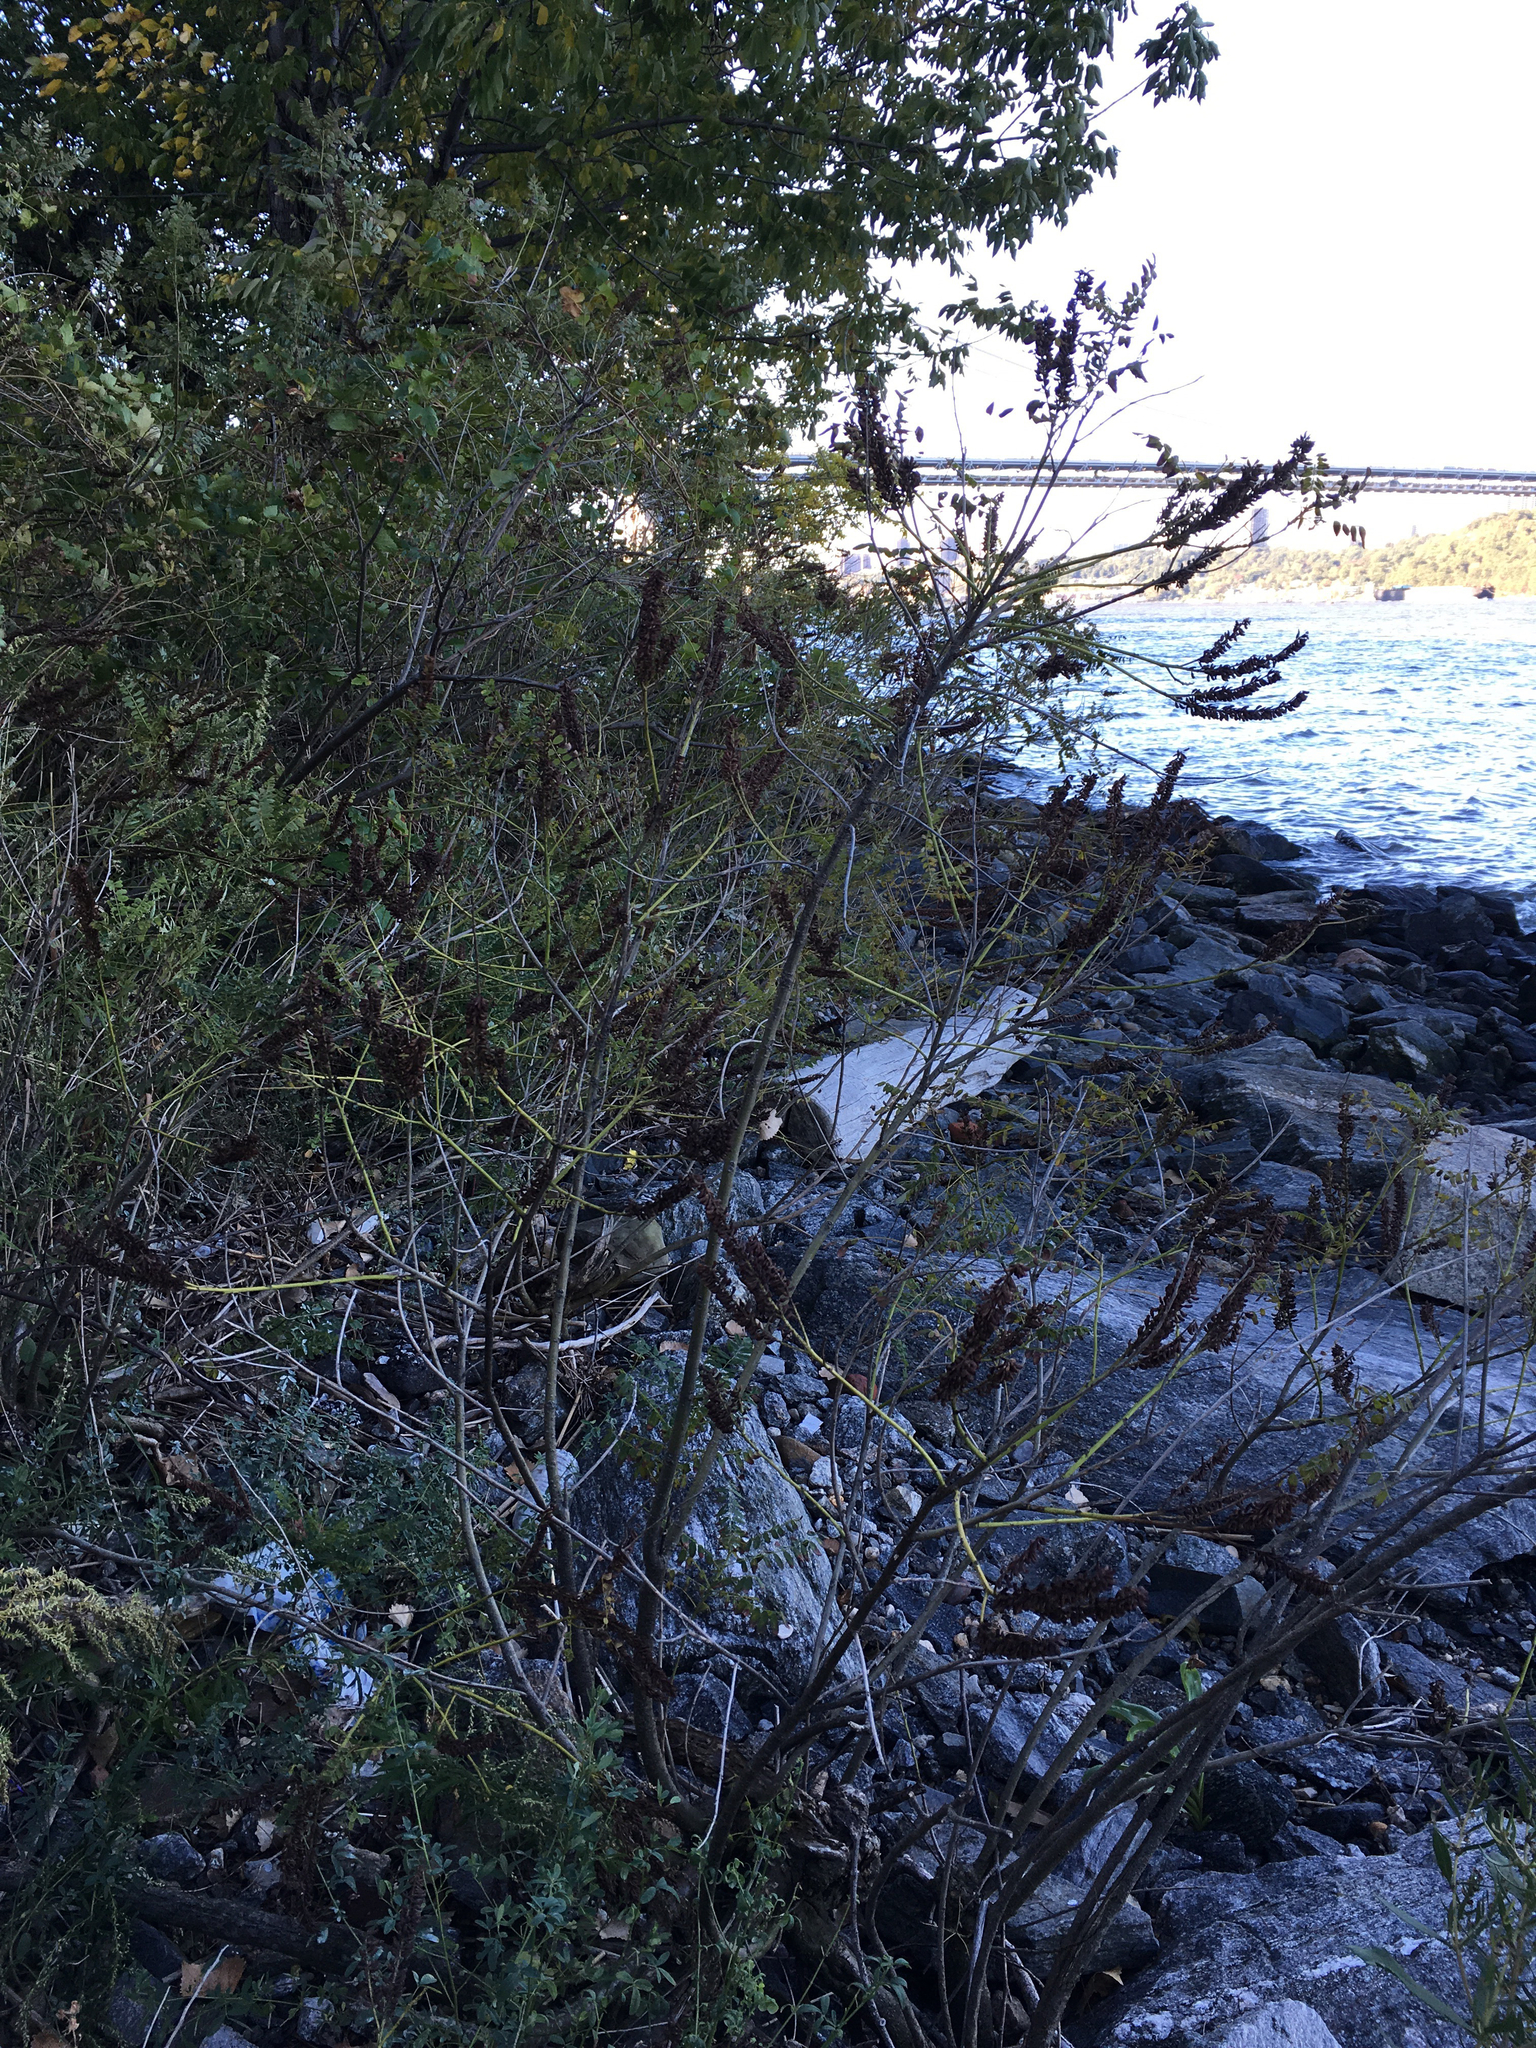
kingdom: Plantae
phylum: Tracheophyta
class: Magnoliopsida
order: Fabales
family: Fabaceae
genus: Amorpha
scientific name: Amorpha fruticosa
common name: False indigo
